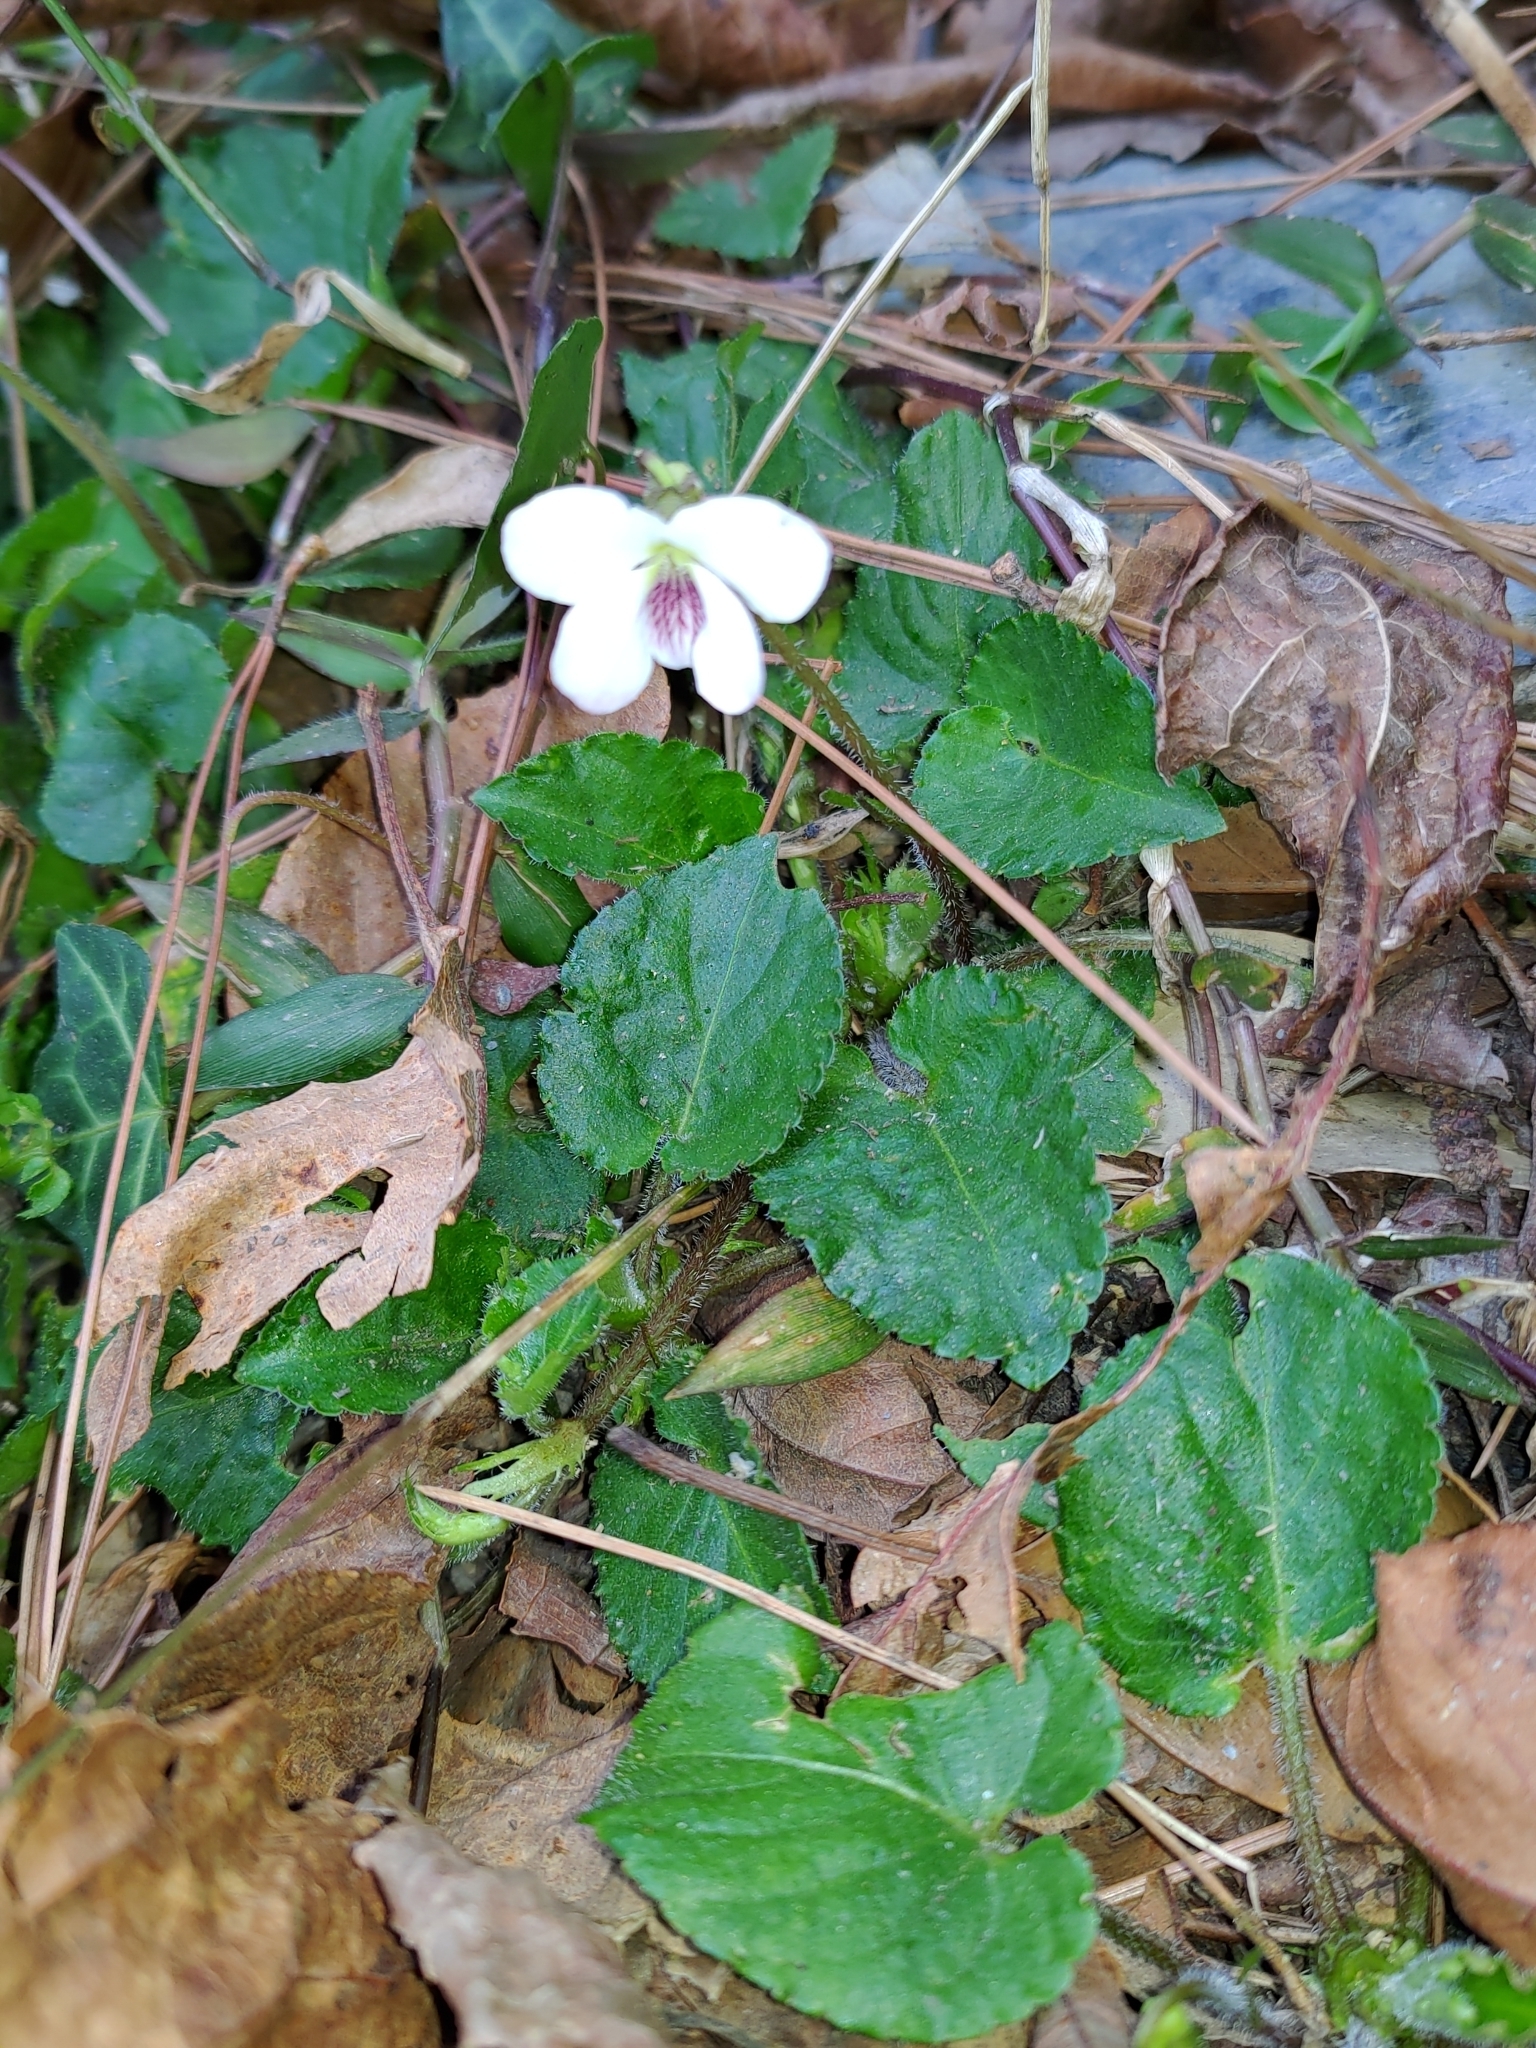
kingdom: Plantae
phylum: Tracheophyta
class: Magnoliopsida
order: Malpighiales
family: Violaceae
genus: Viola
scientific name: Viola adenothrix
